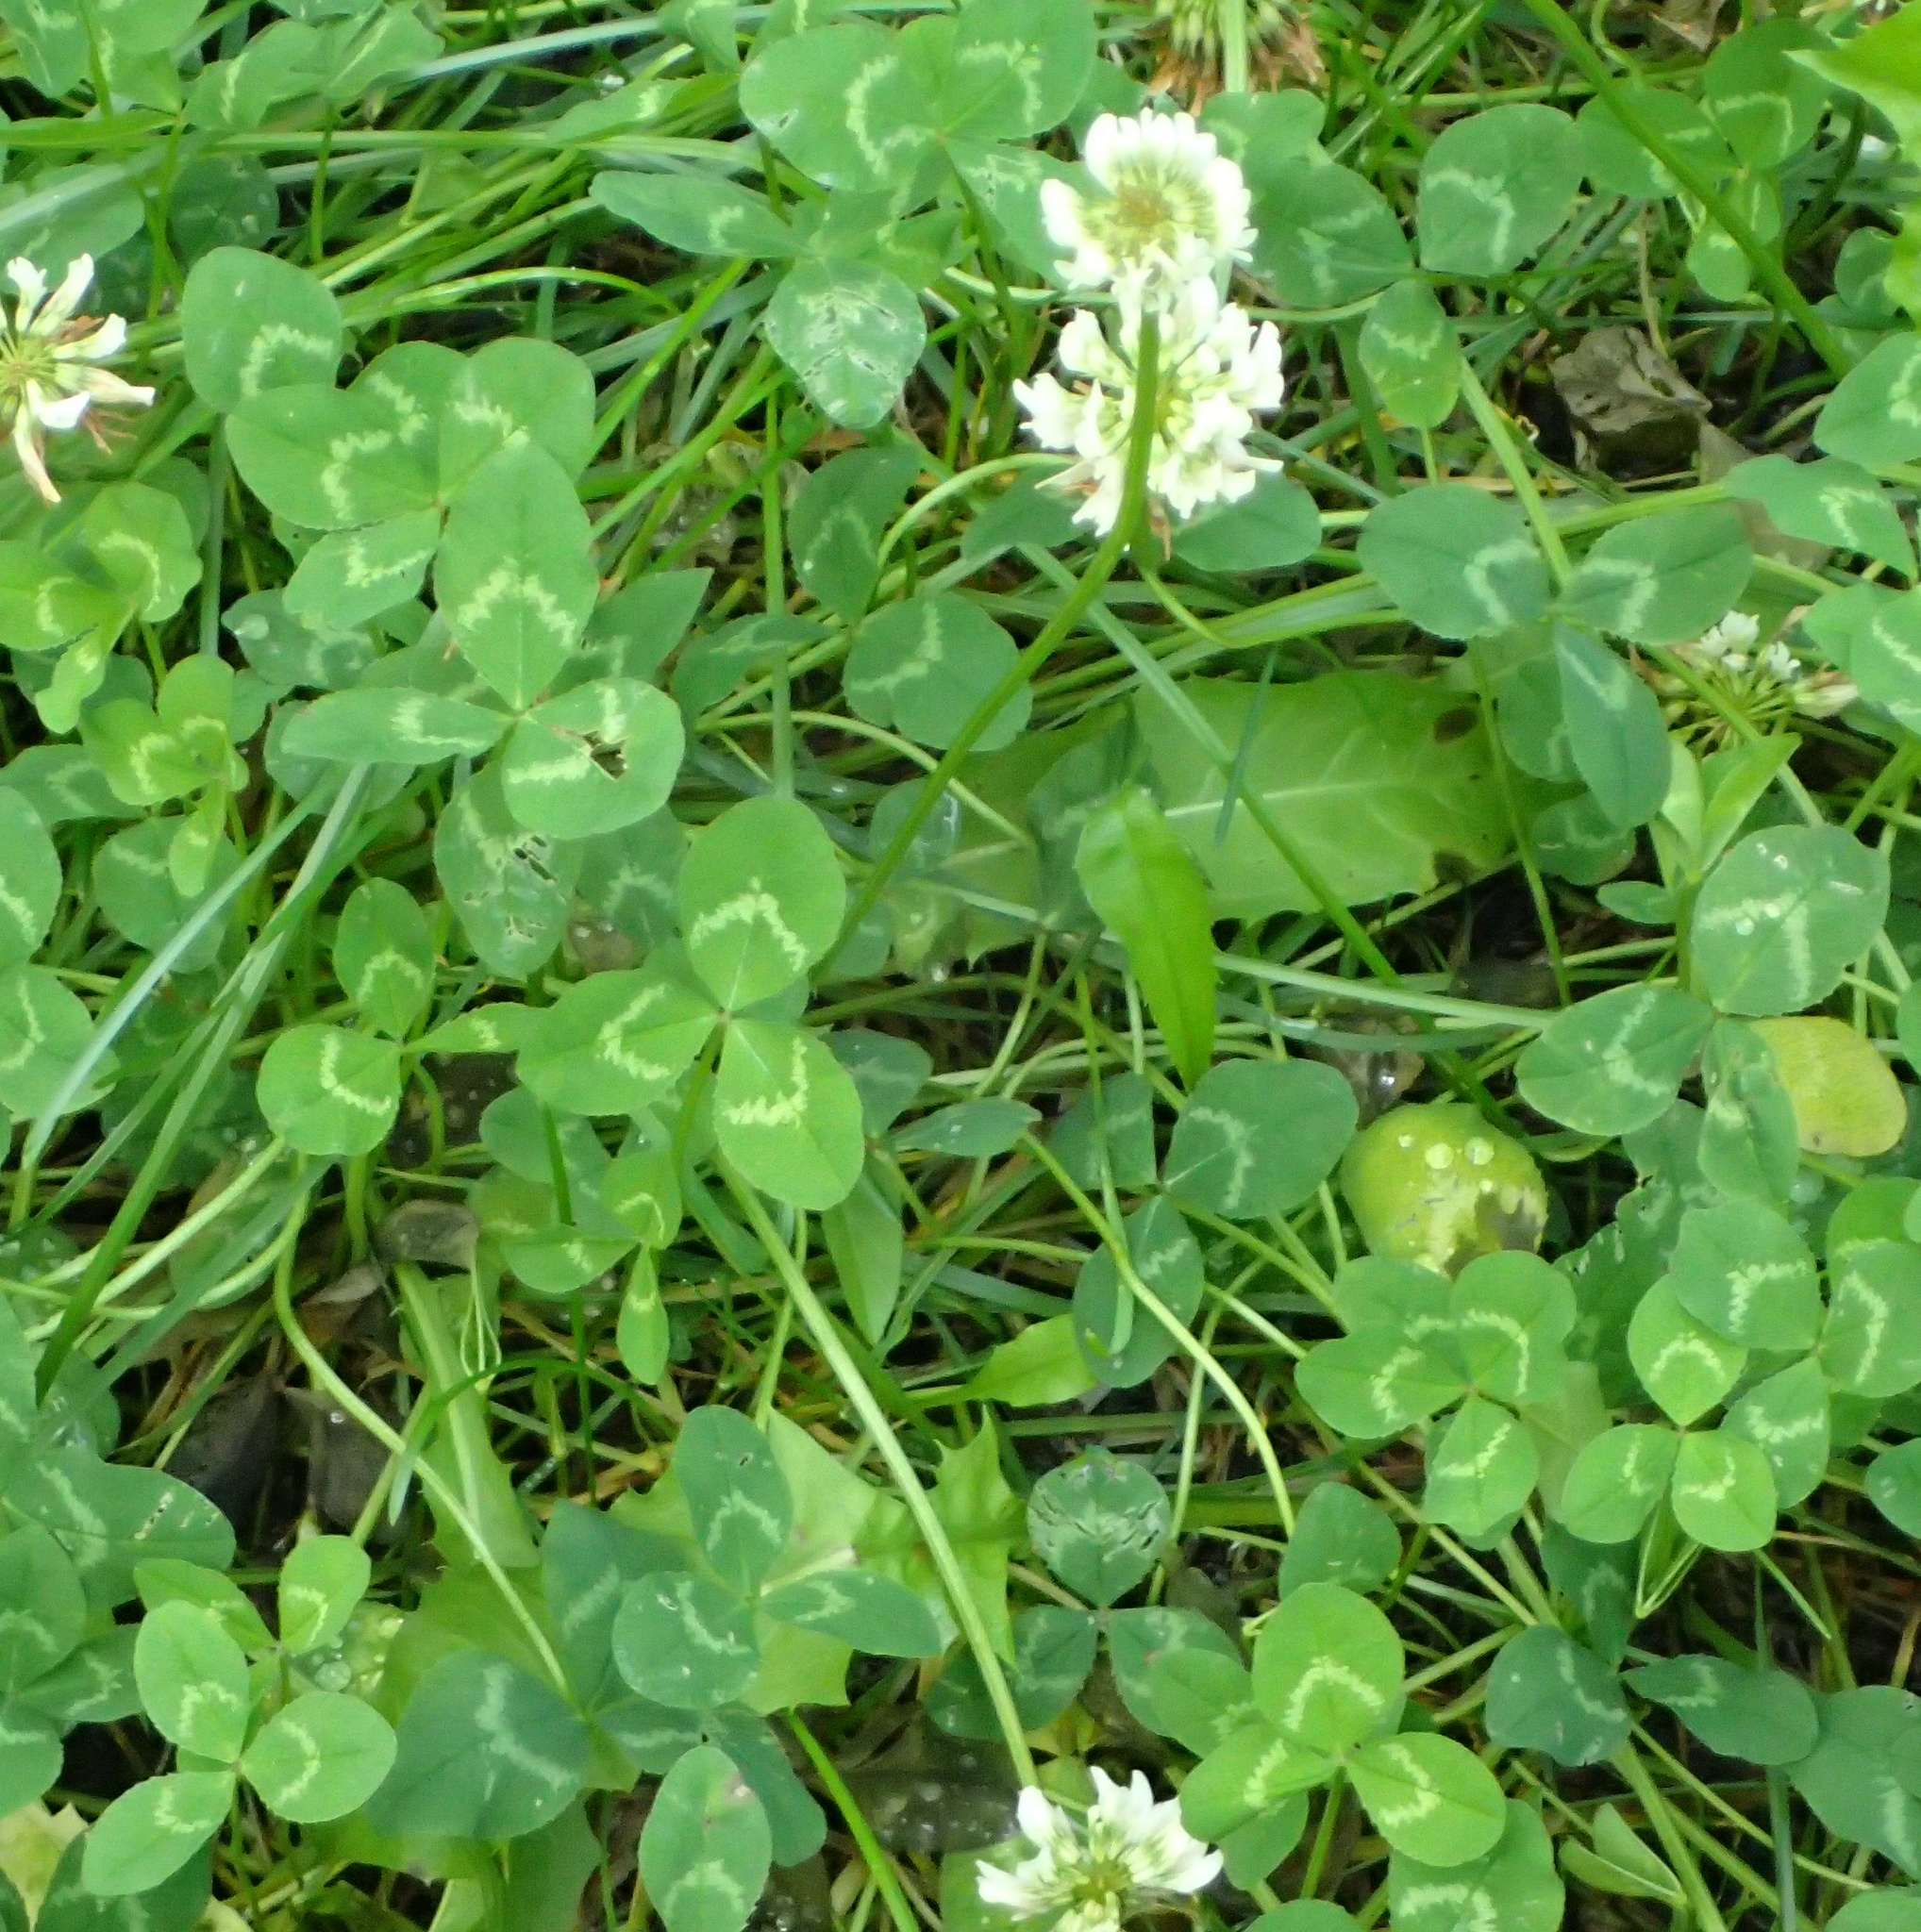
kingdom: Plantae
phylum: Tracheophyta
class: Magnoliopsida
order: Fabales
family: Fabaceae
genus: Trifolium
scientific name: Trifolium repens
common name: White clover
